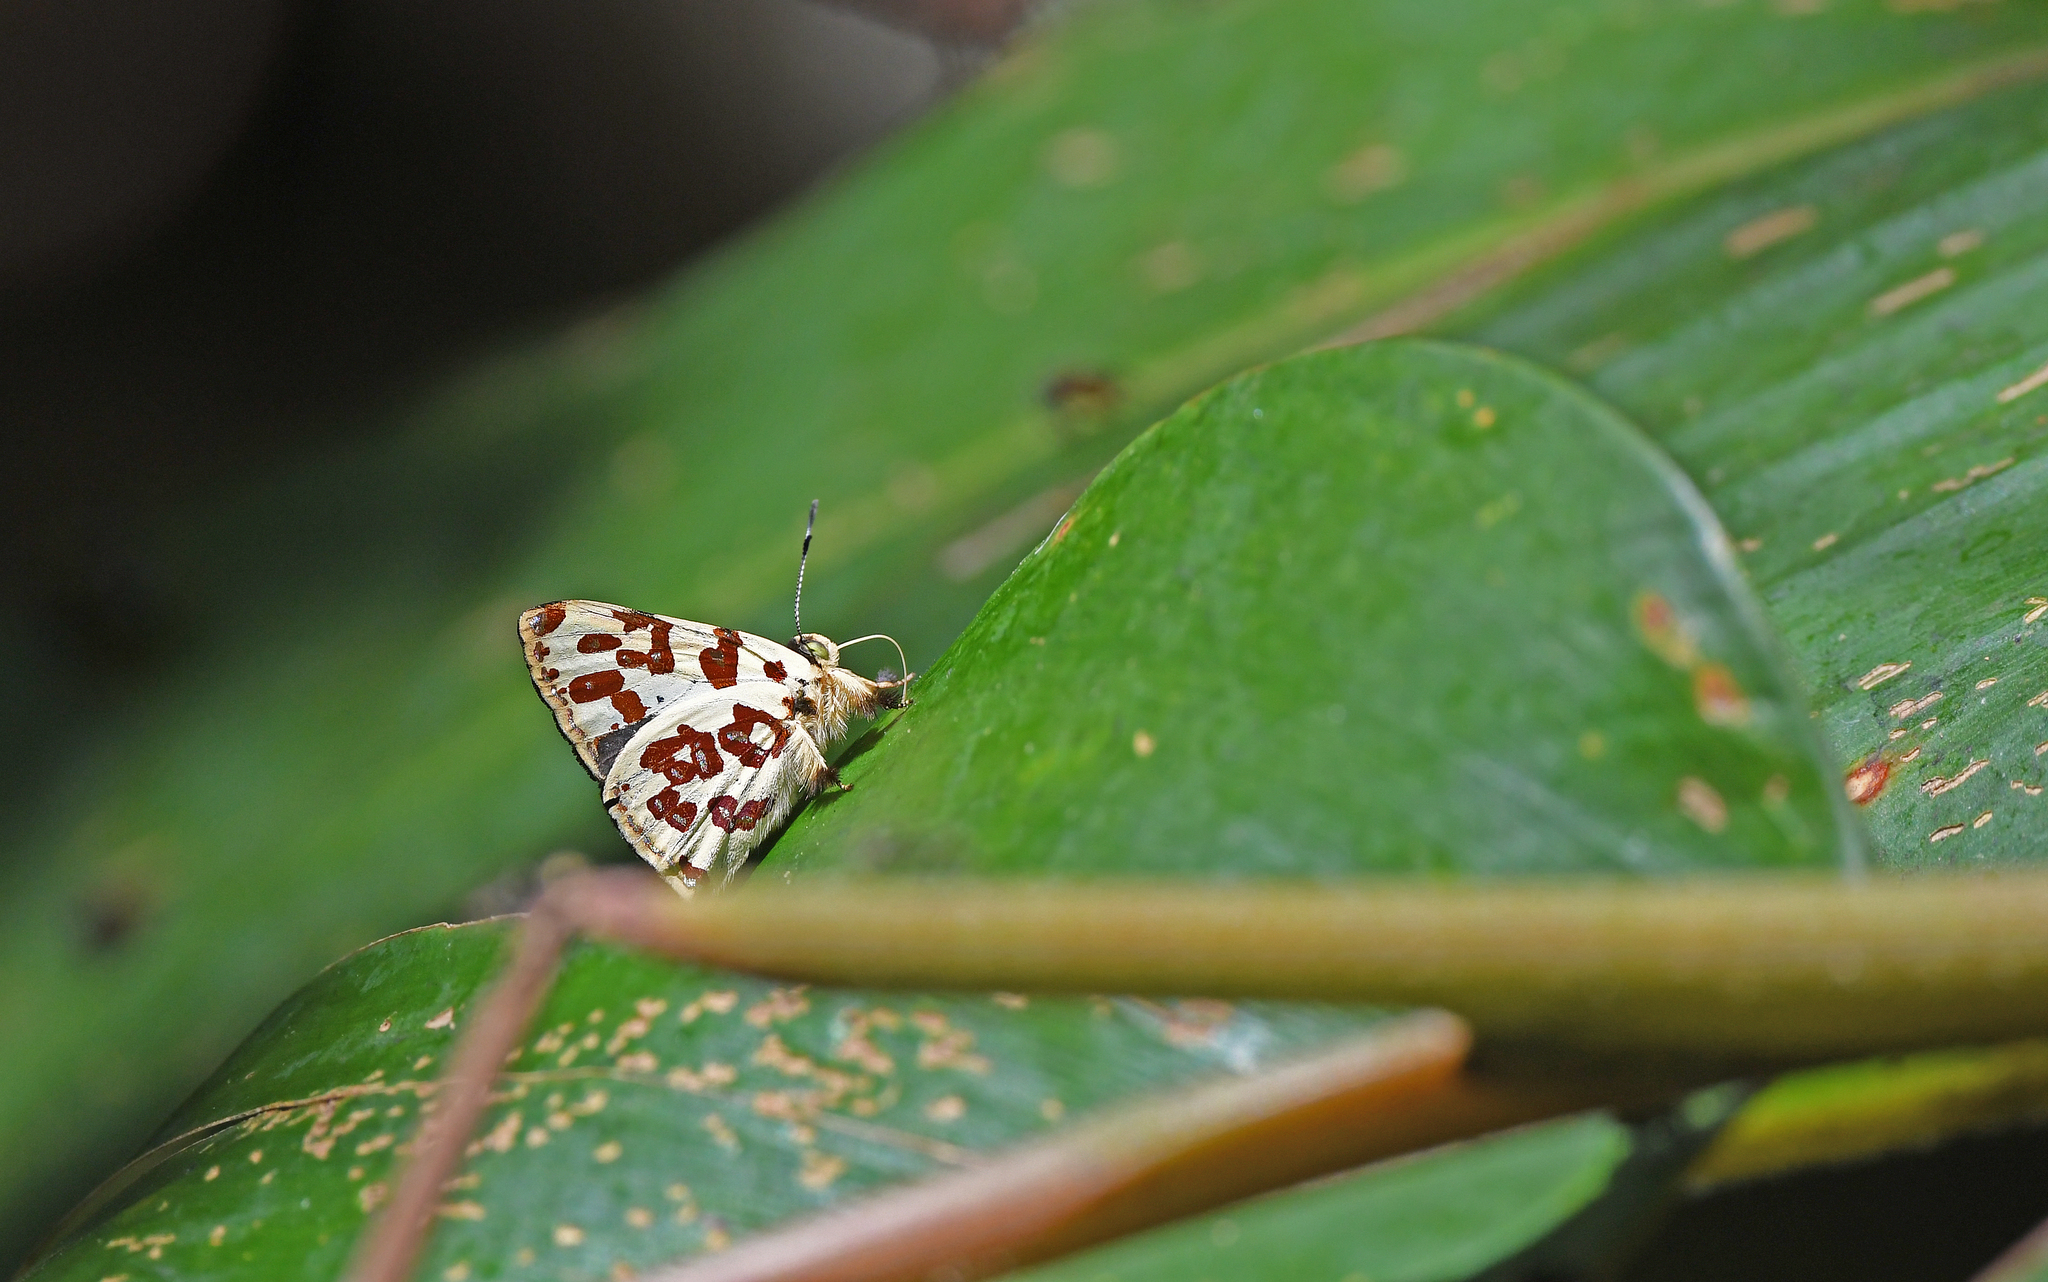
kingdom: Animalia
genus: Anteros
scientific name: Anteros bracteatus
